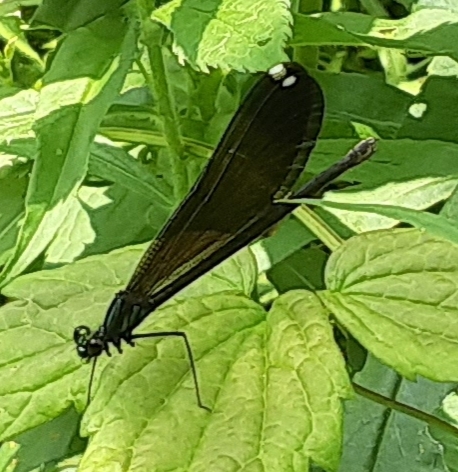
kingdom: Animalia
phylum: Arthropoda
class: Insecta
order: Odonata
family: Calopterygidae
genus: Calopteryx
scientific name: Calopteryx maculata
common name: Ebony jewelwing
